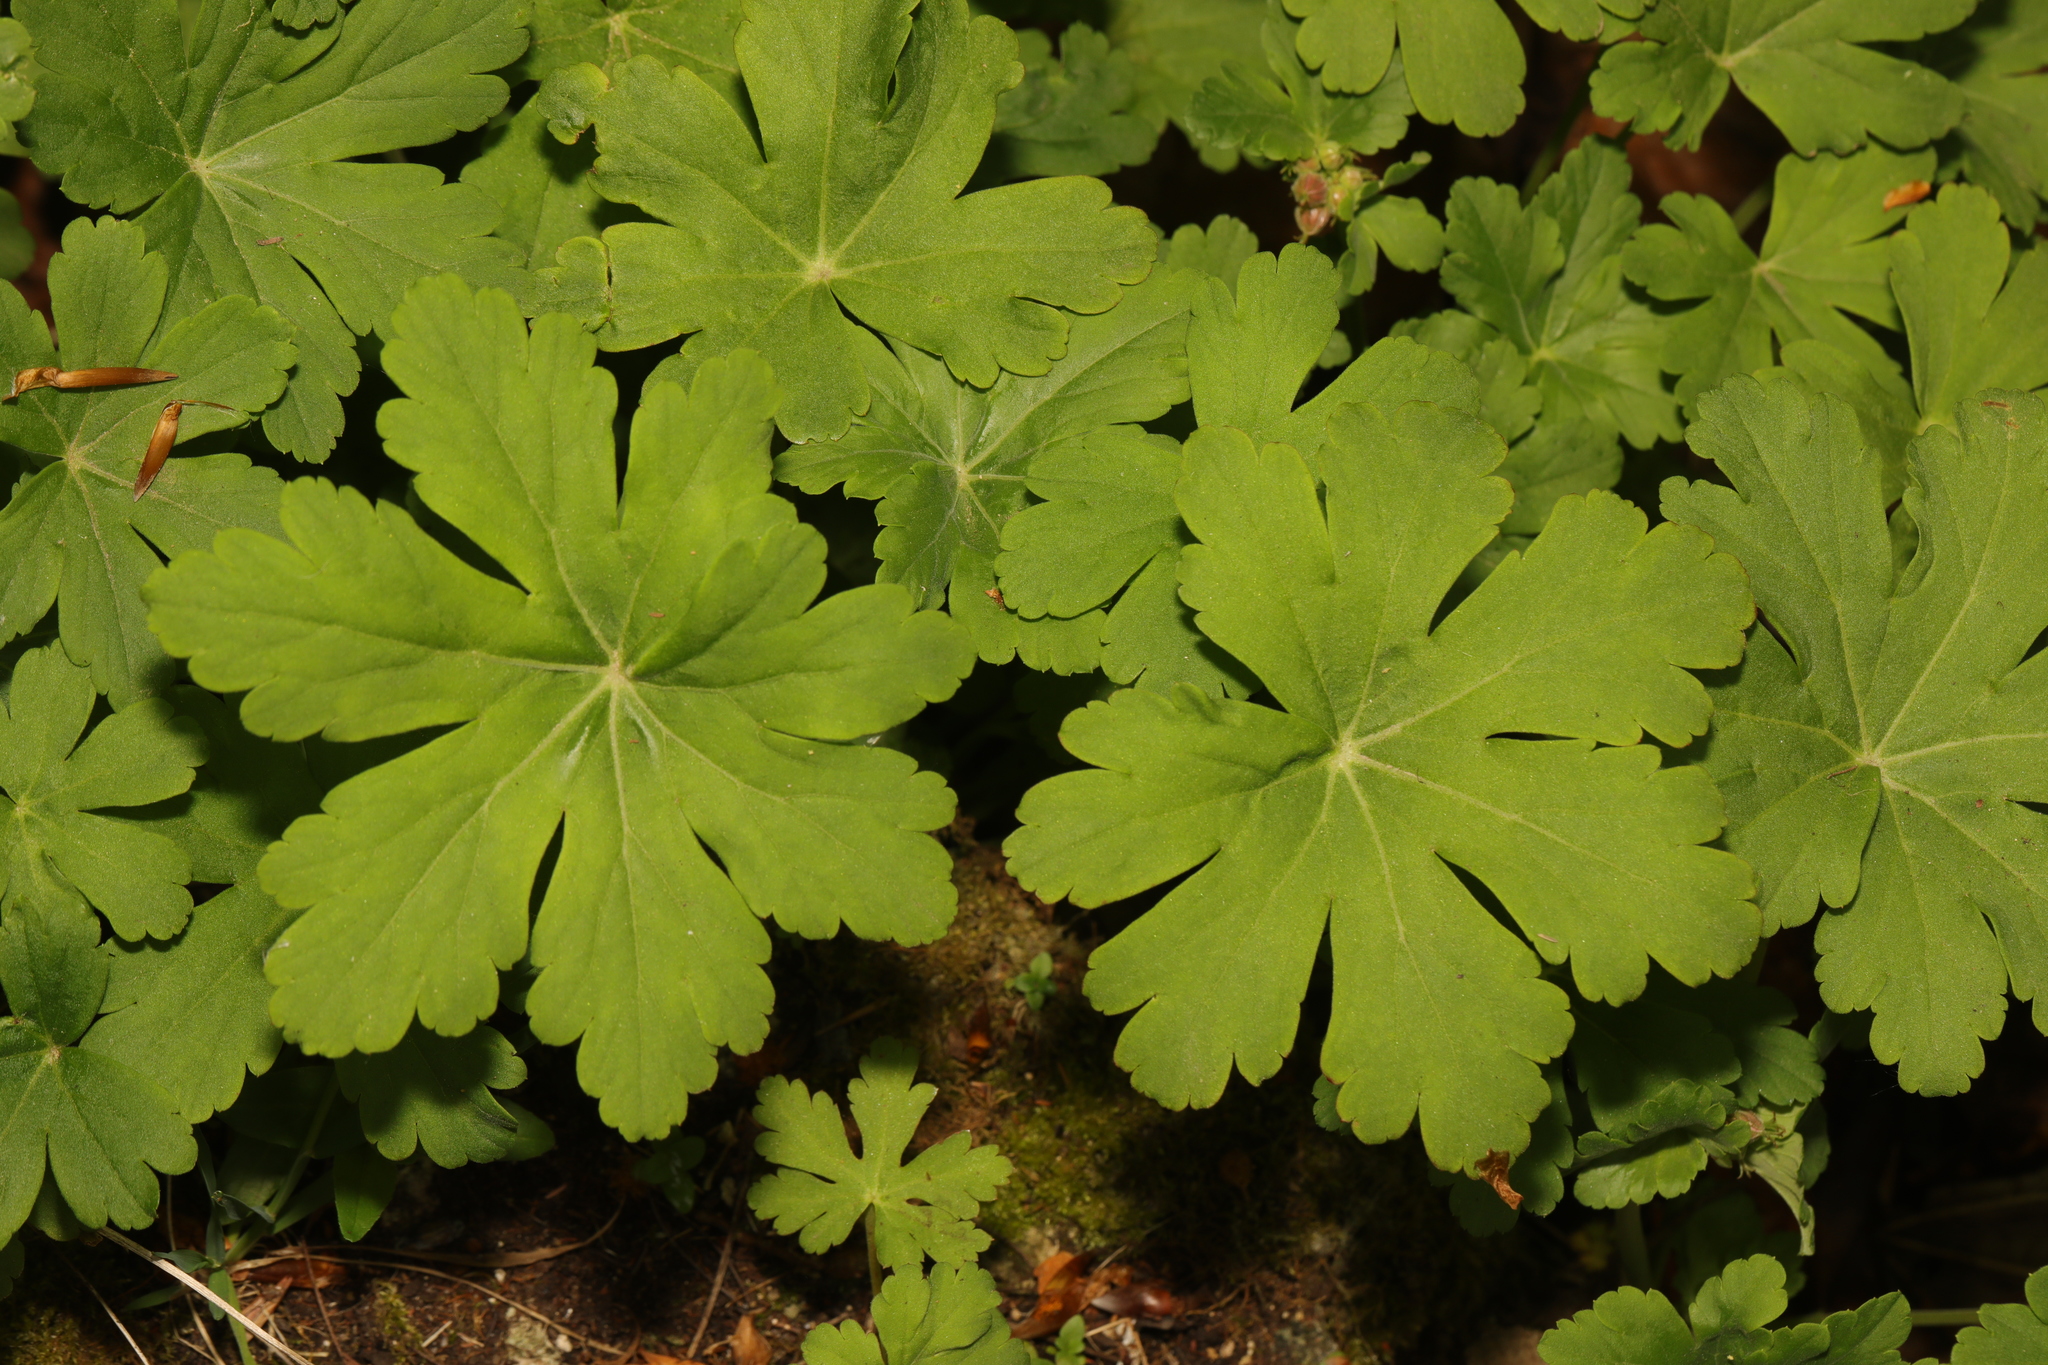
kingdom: Plantae
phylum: Tracheophyta
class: Magnoliopsida
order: Geraniales
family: Geraniaceae
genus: Geranium
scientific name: Geranium macrorrhizum
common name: Rock crane's-bill
